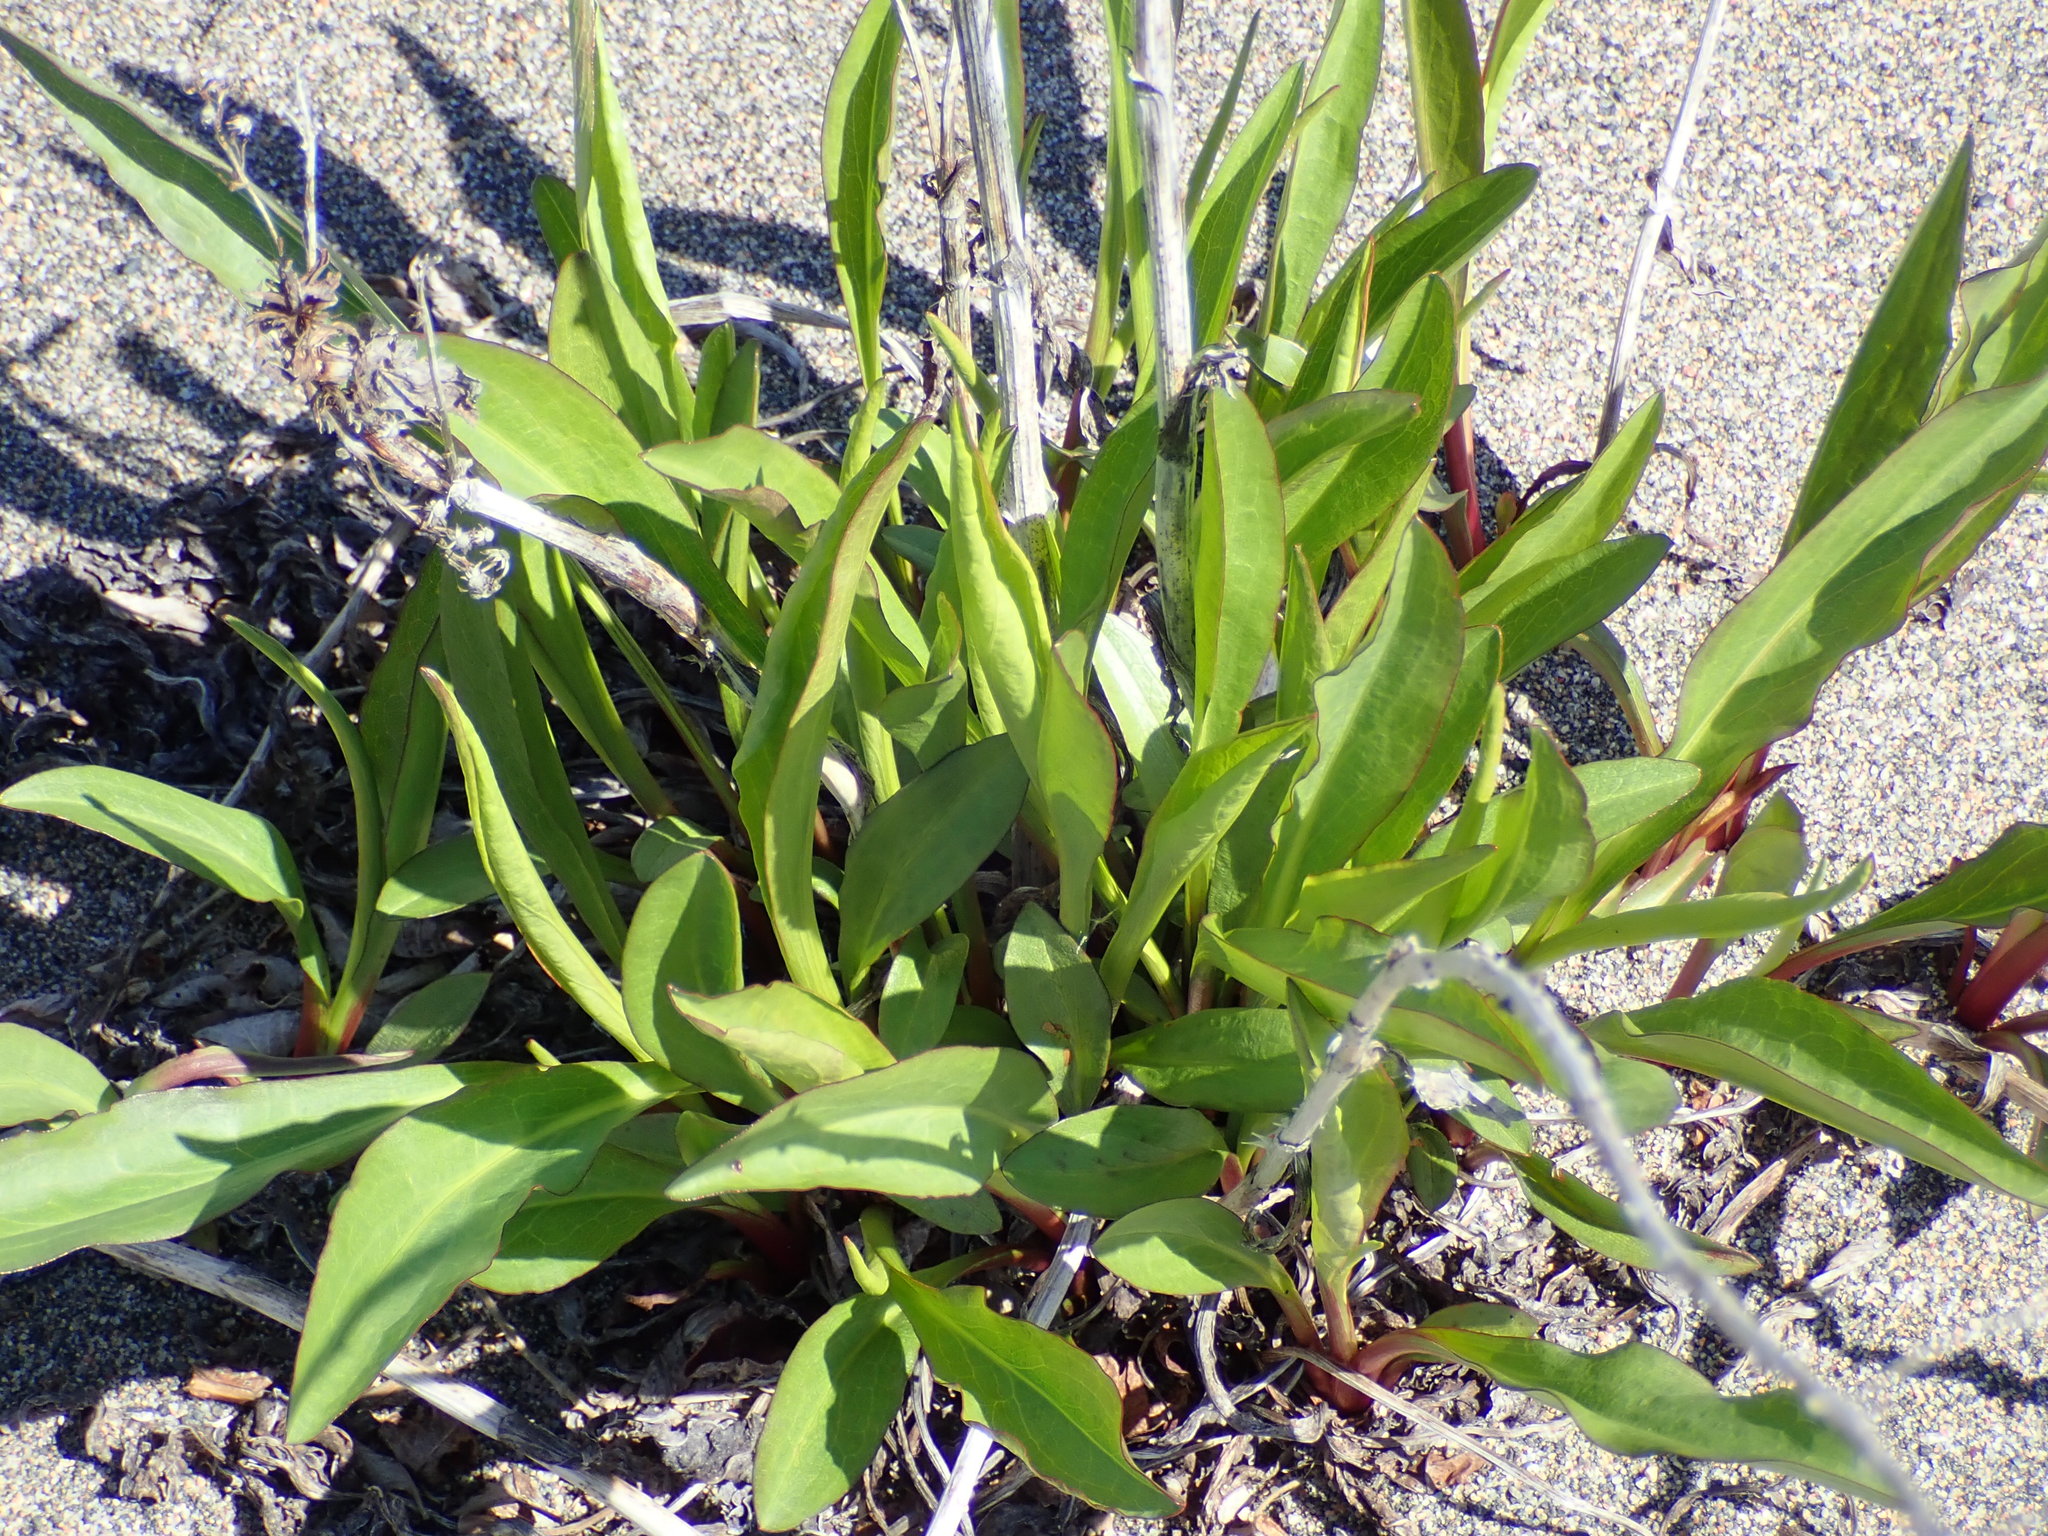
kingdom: Plantae
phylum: Tracheophyta
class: Magnoliopsida
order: Asterales
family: Asteraceae
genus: Solidago
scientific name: Solidago sempervirens
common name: Salt-marsh goldenrod
